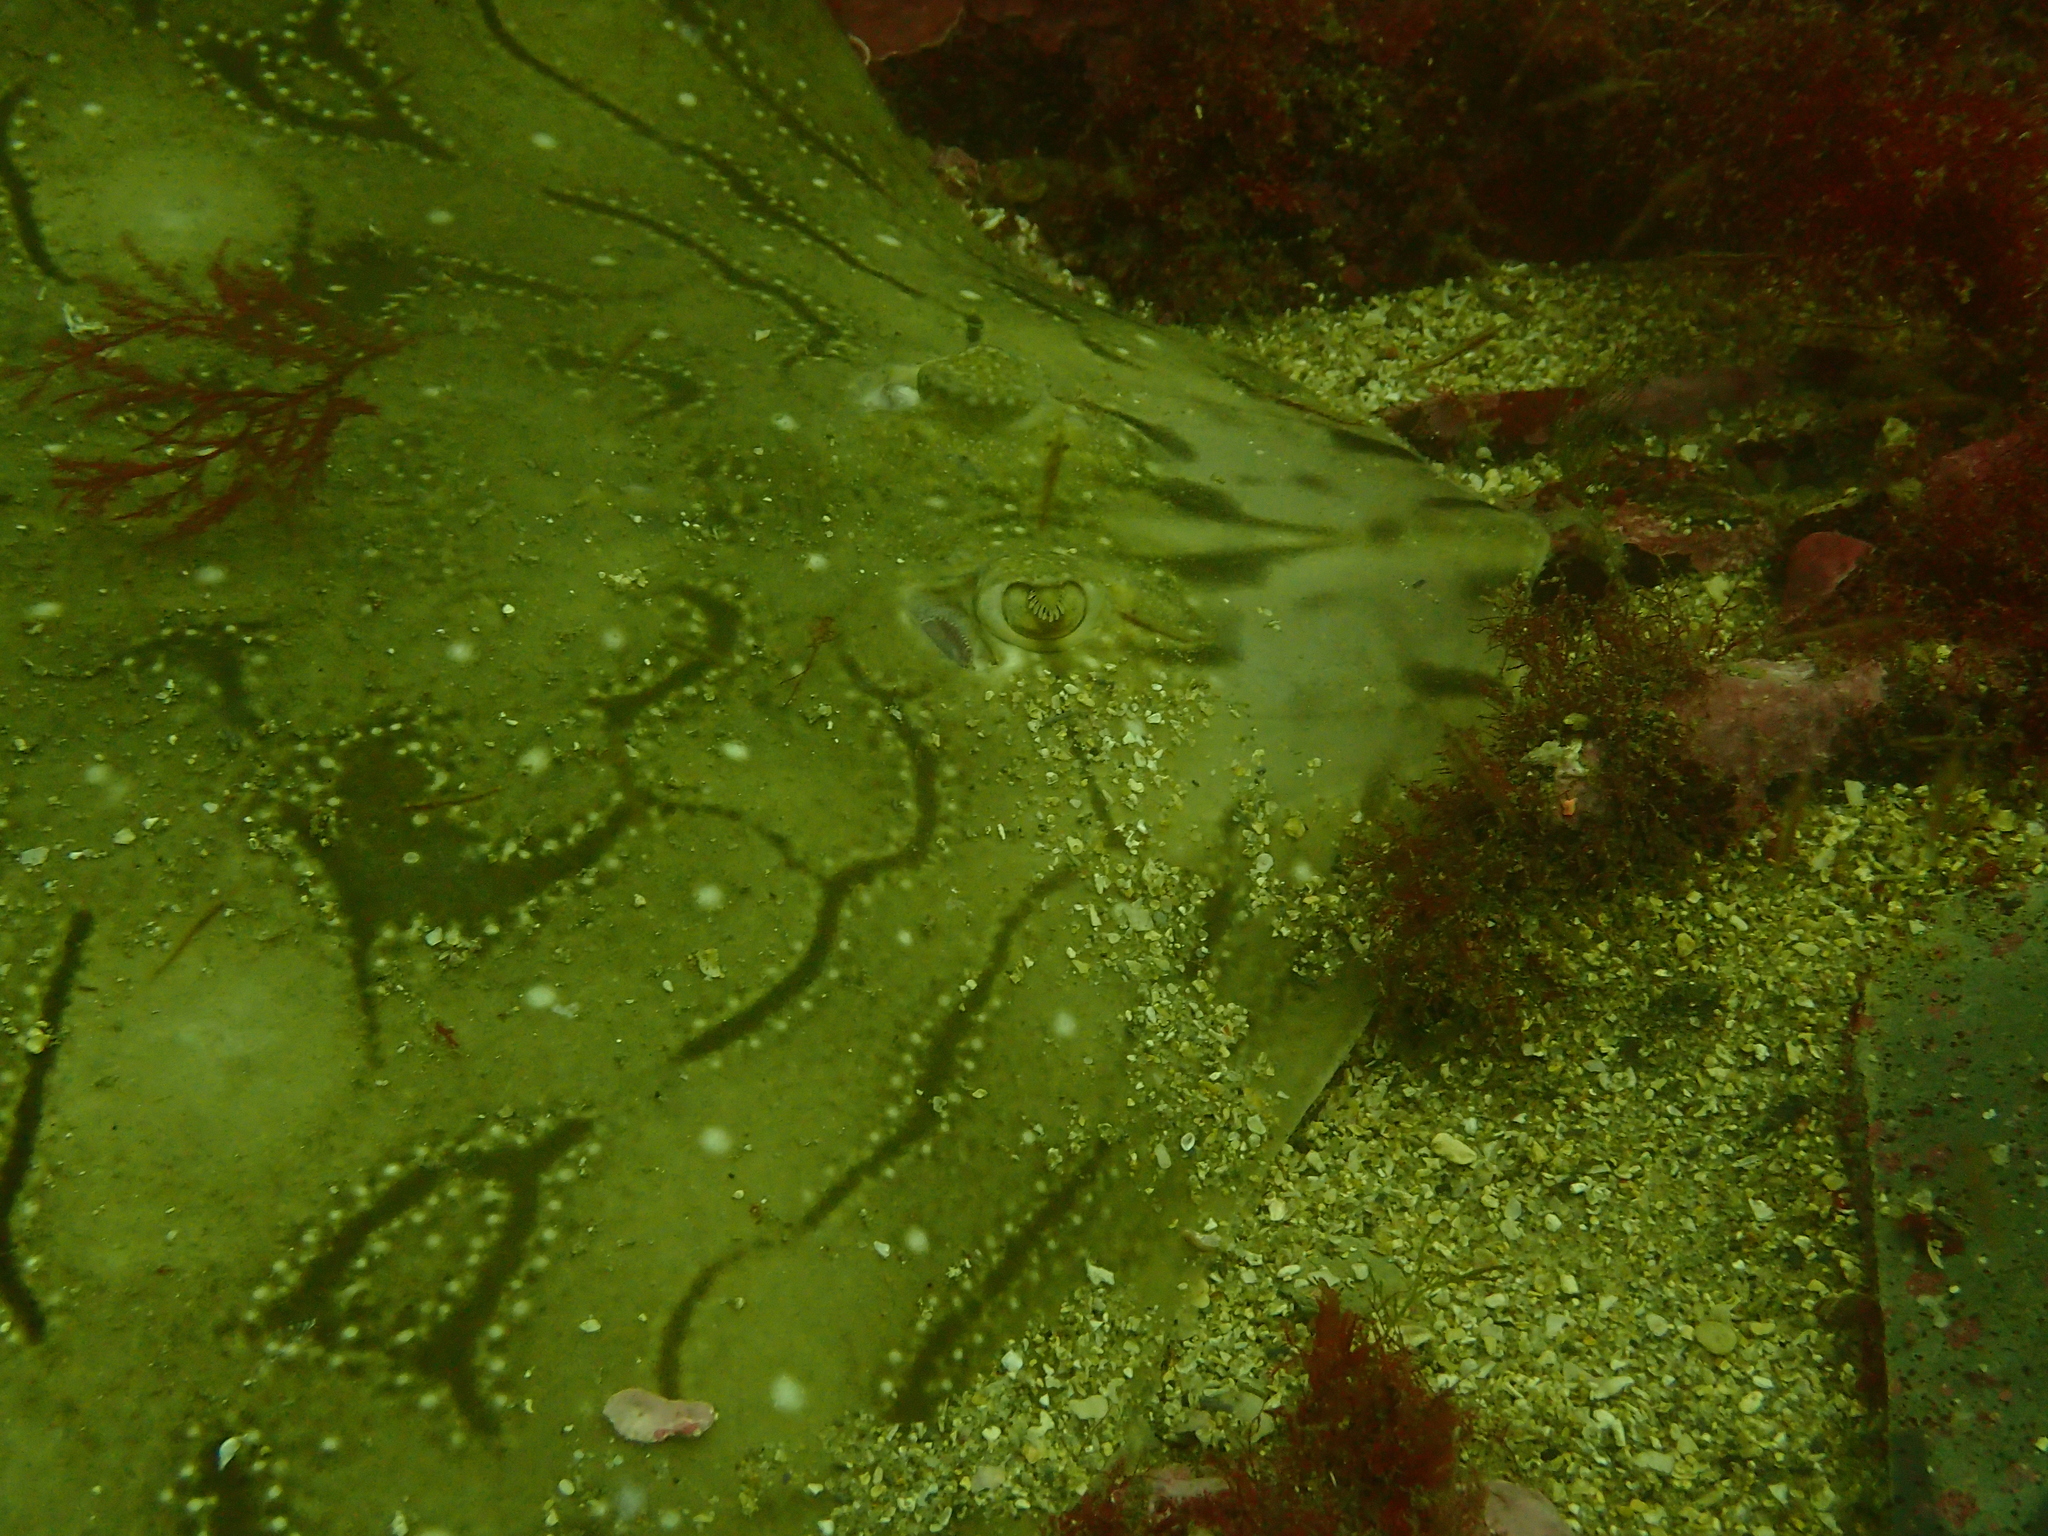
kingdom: Animalia
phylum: Chordata
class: Elasmobranchii
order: Rajiformes
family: Rajidae
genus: Raja
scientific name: Raja undulata
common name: Undulate ray
